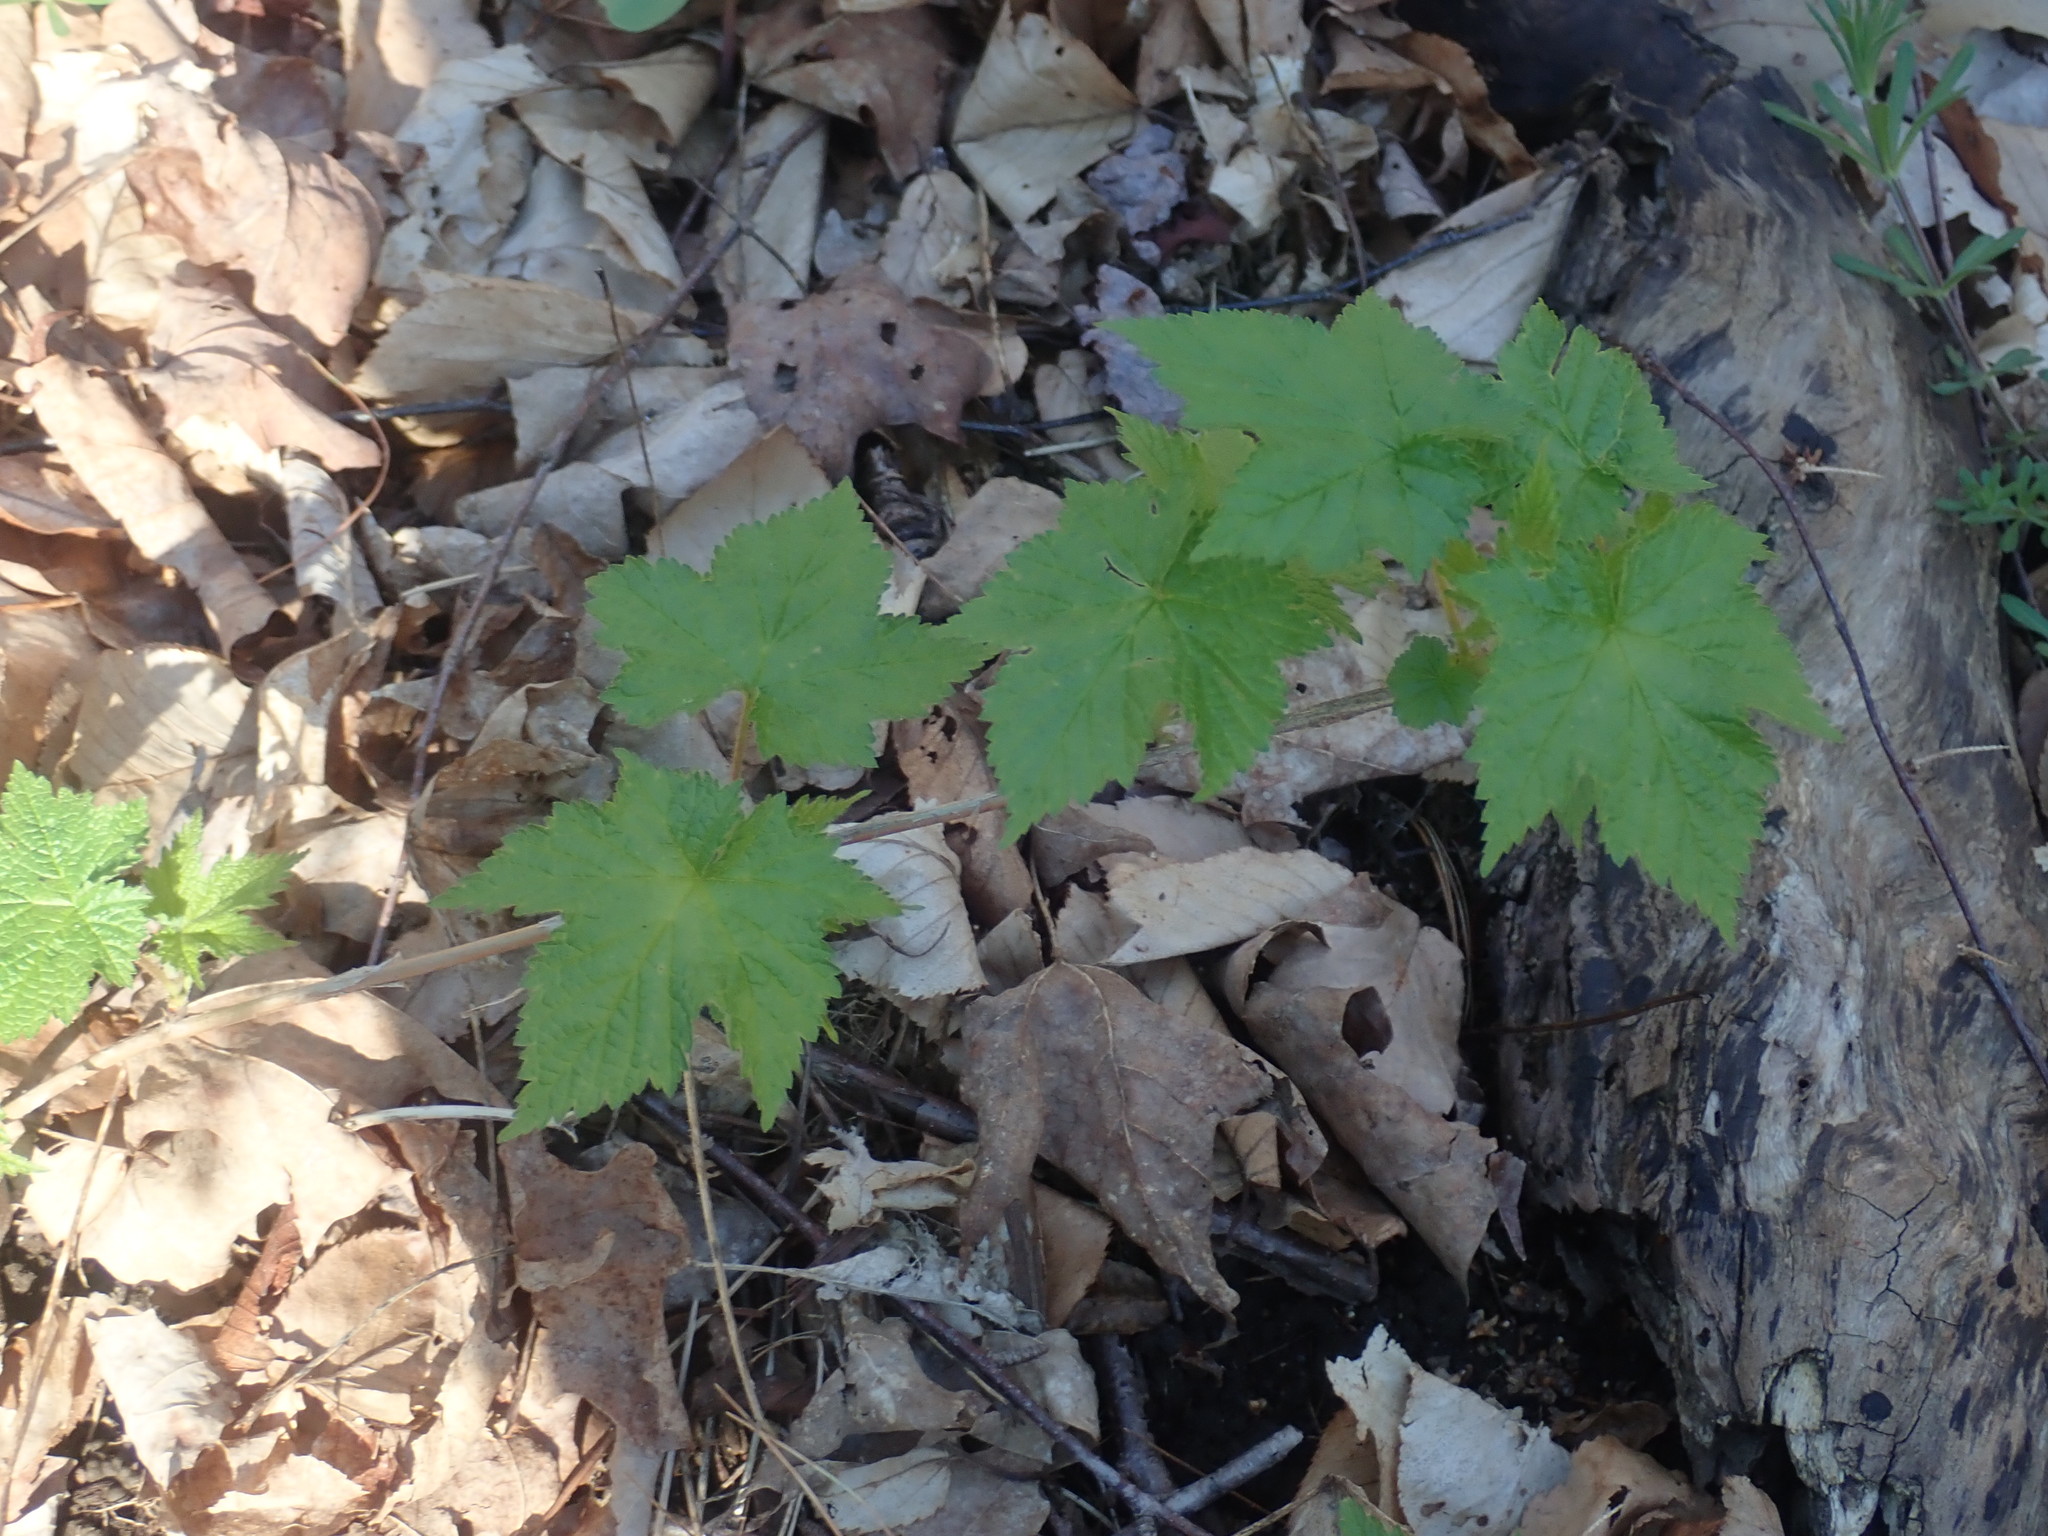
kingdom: Plantae
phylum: Tracheophyta
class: Magnoliopsida
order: Rosales
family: Rosaceae
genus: Rubus
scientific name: Rubus odoratus
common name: Purple-flowered raspberry
